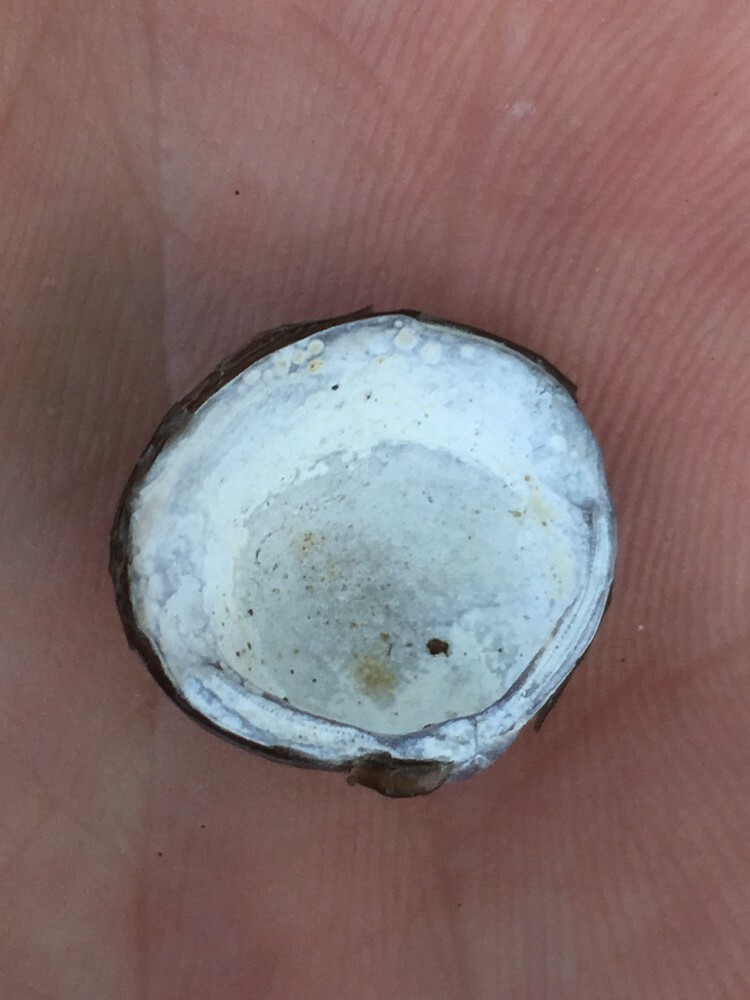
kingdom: Animalia
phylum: Mollusca
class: Bivalvia
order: Venerida
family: Cyrenidae
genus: Corbicula
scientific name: Corbicula fluminea
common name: Asian clam
